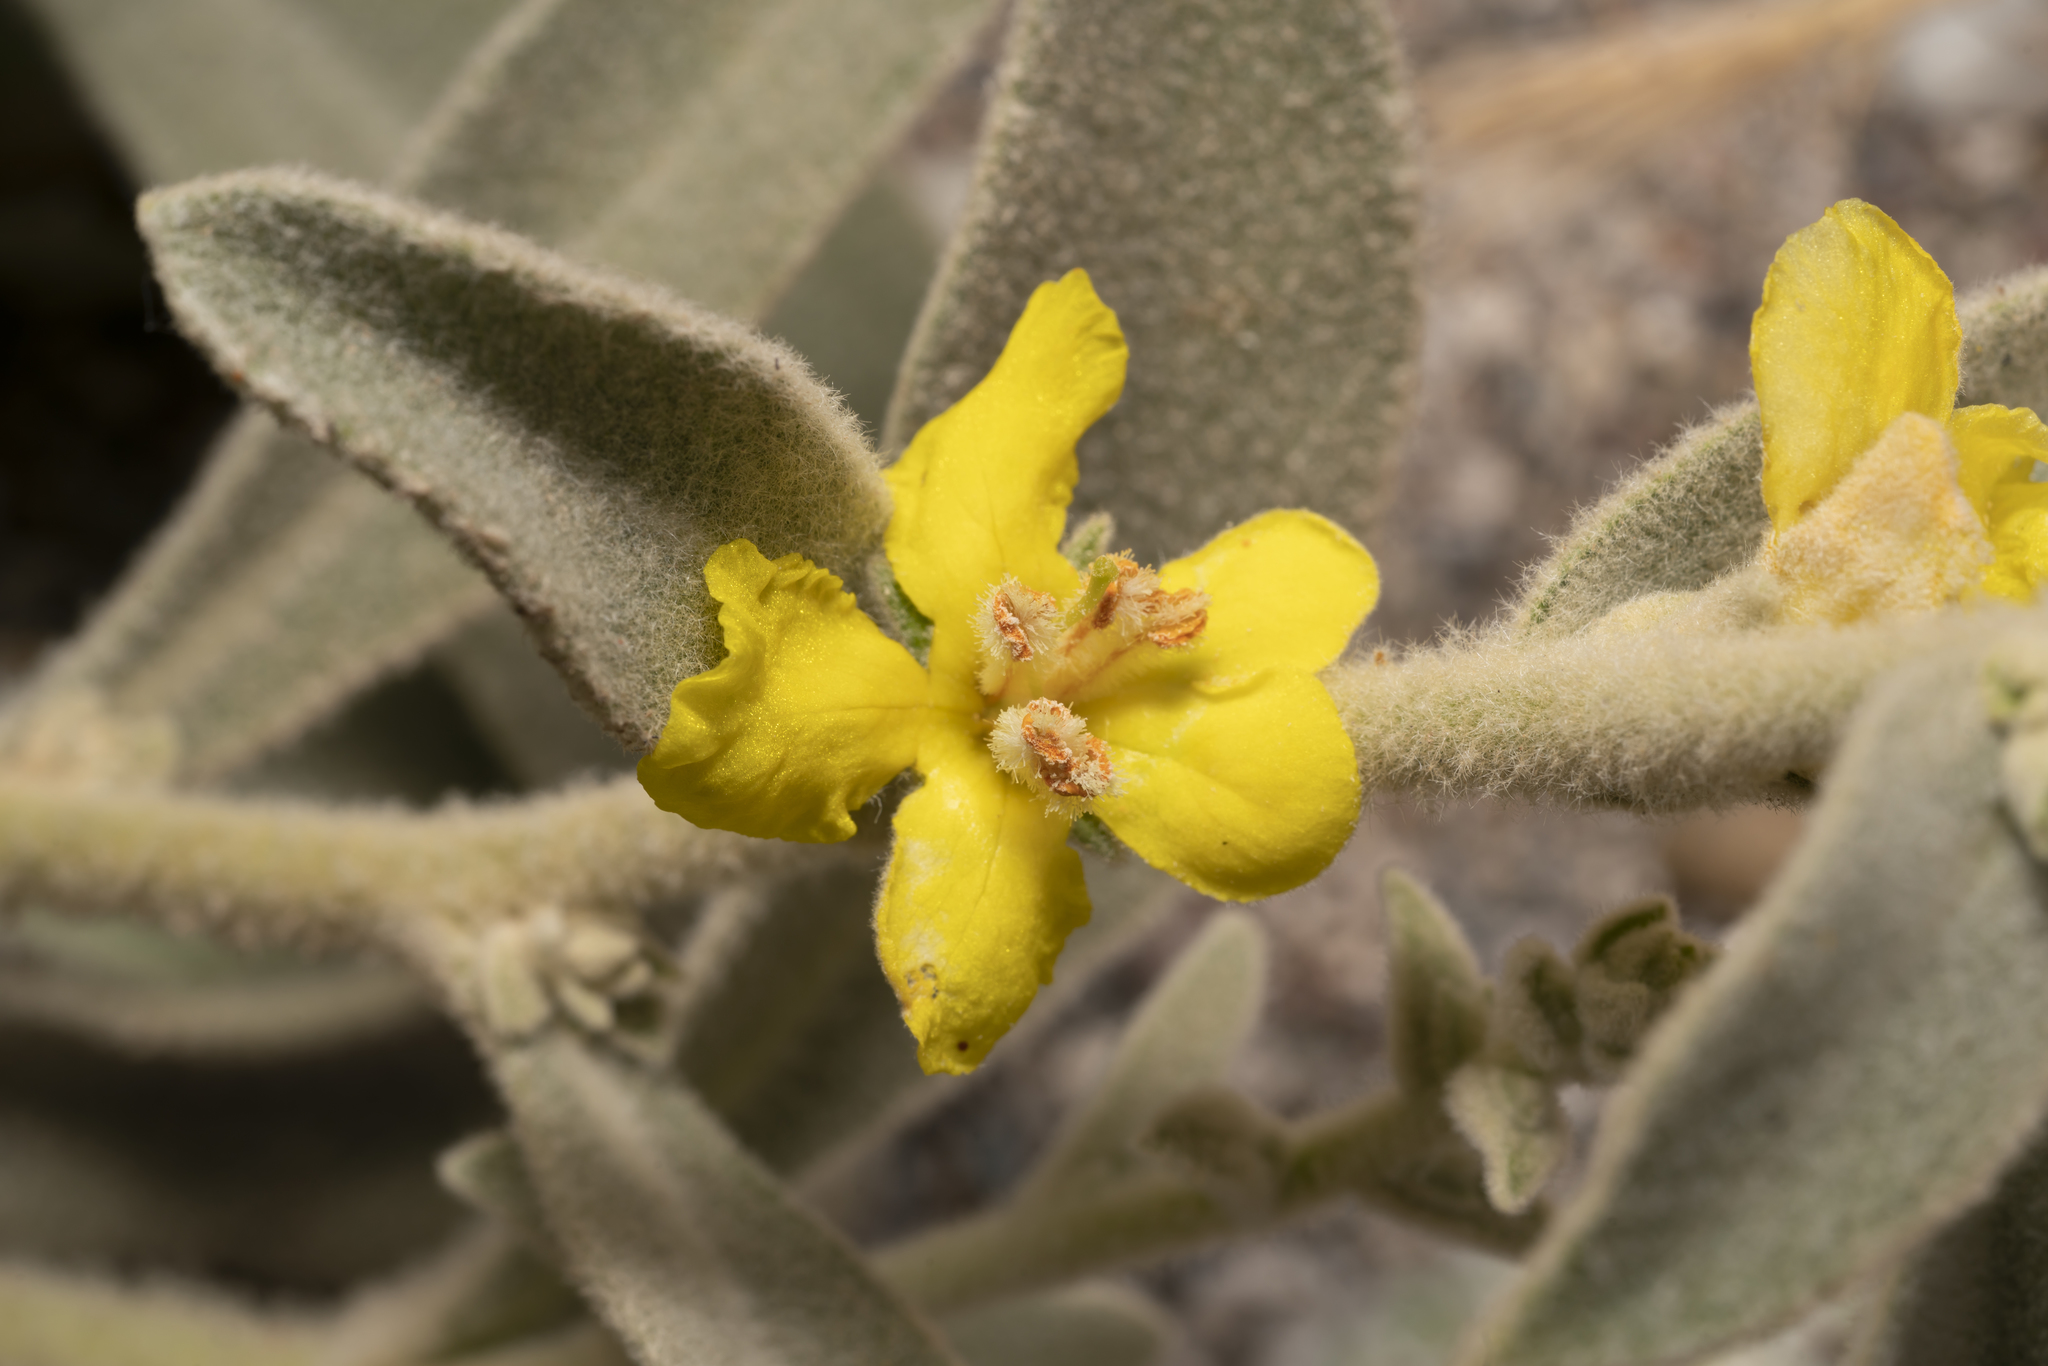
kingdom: Plantae
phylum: Tracheophyta
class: Magnoliopsida
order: Lamiales
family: Scrophulariaceae
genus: Verbascum
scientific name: Verbascum syriacum
